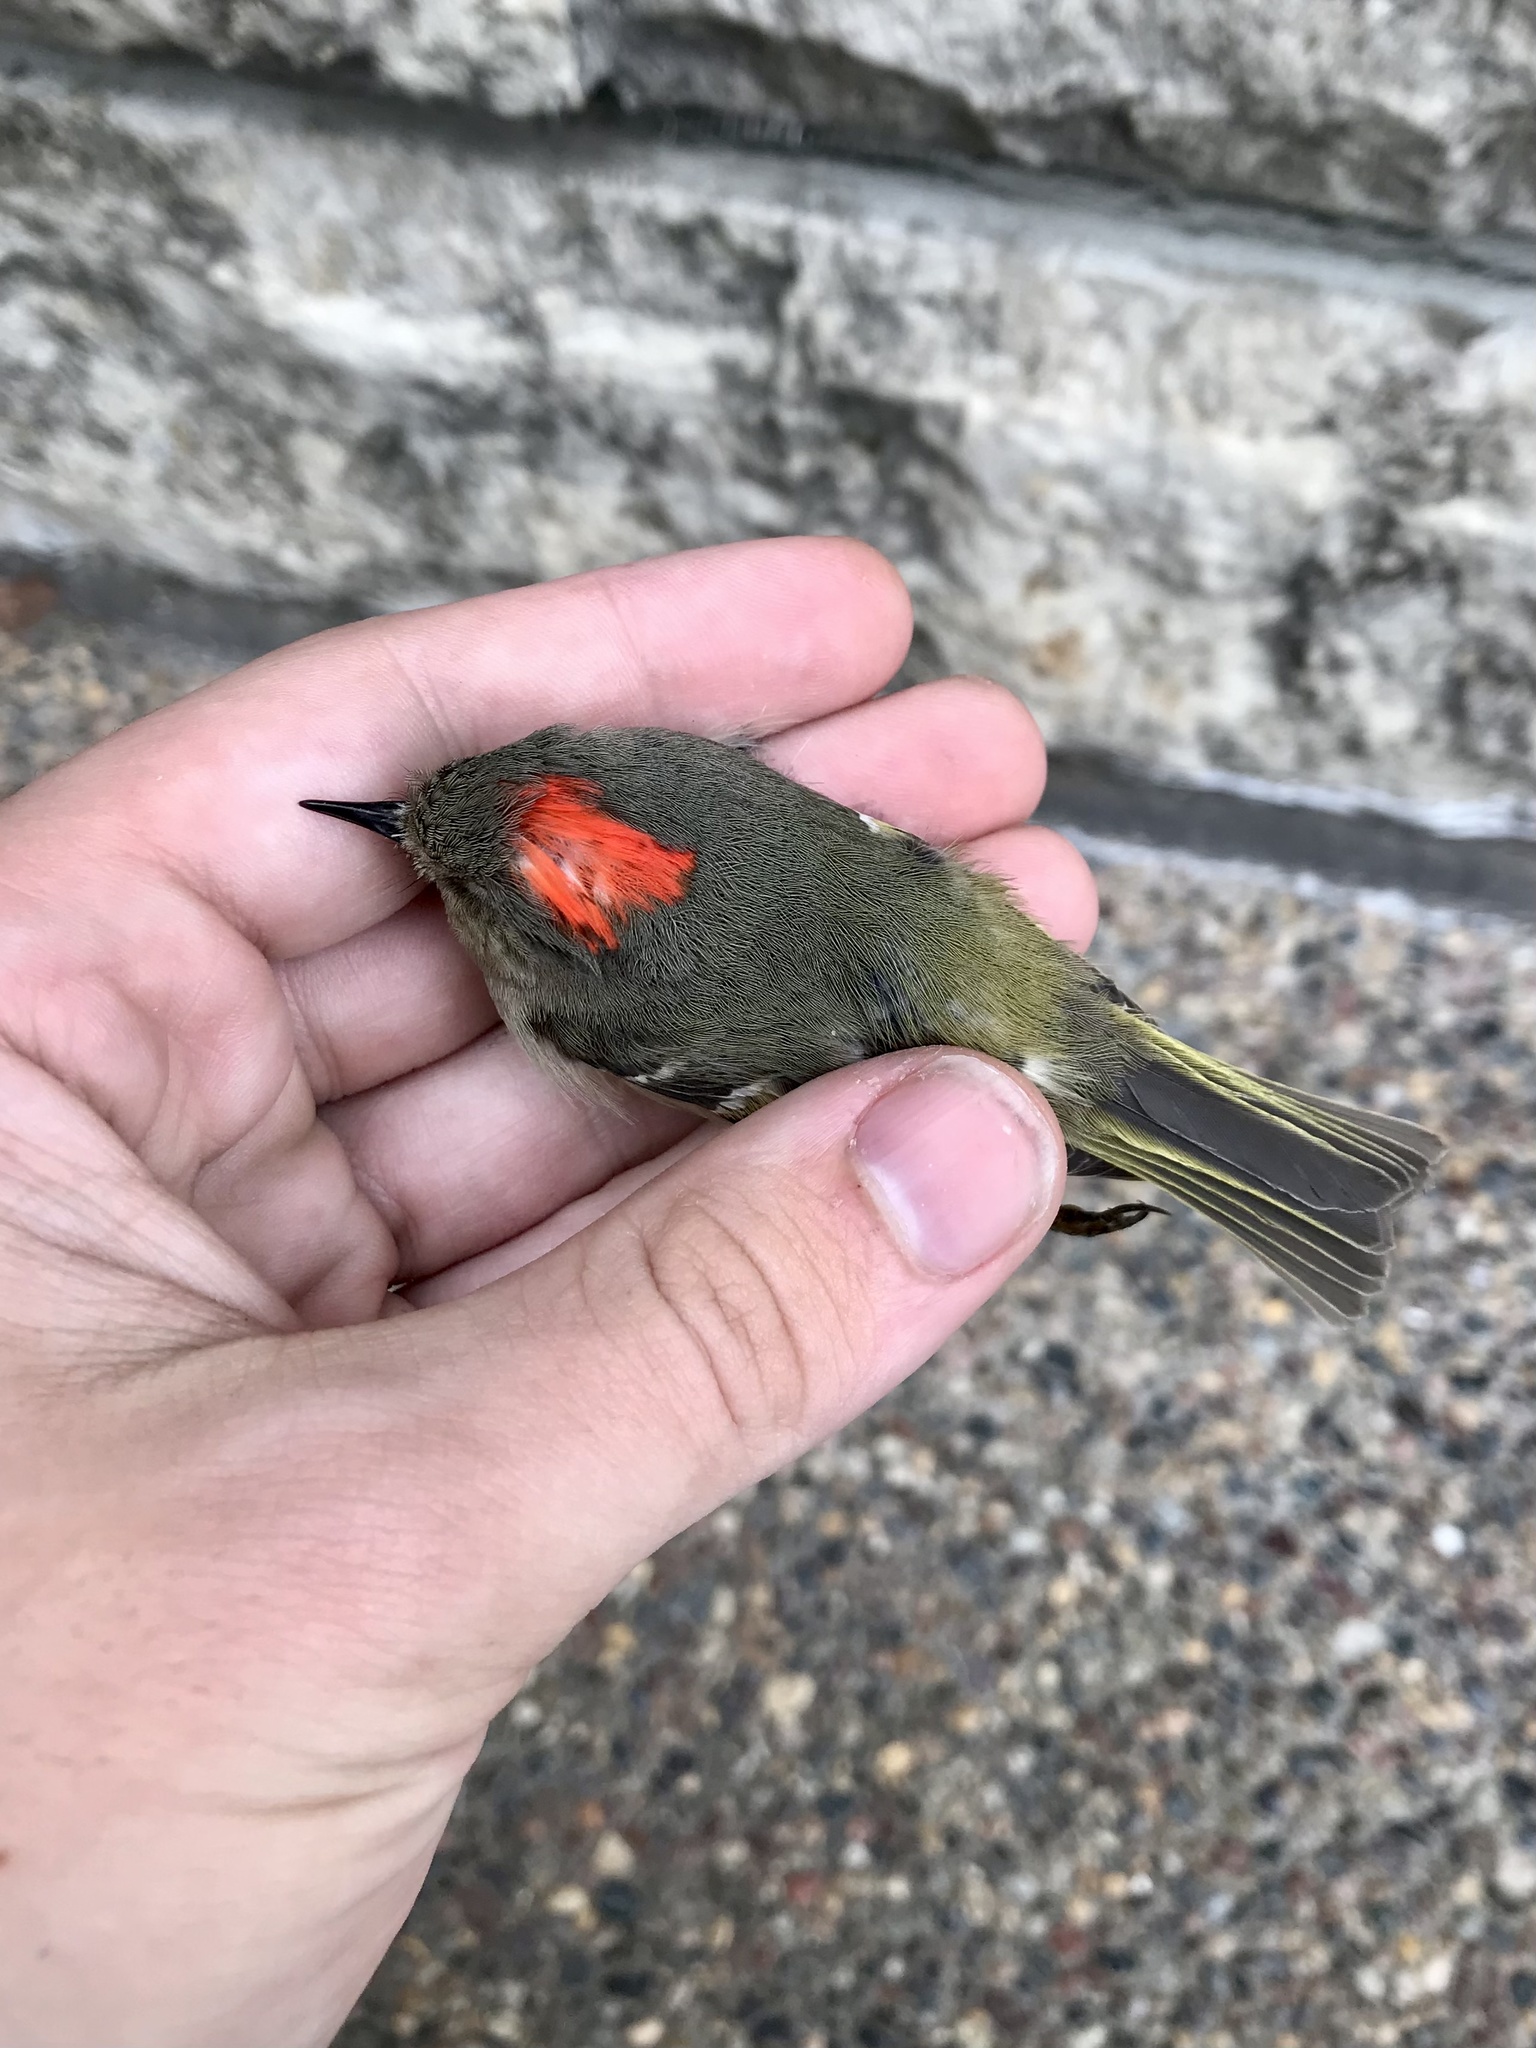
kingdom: Animalia
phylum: Chordata
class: Aves
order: Passeriformes
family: Regulidae
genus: Regulus
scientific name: Regulus calendula
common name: Ruby-crowned kinglet
